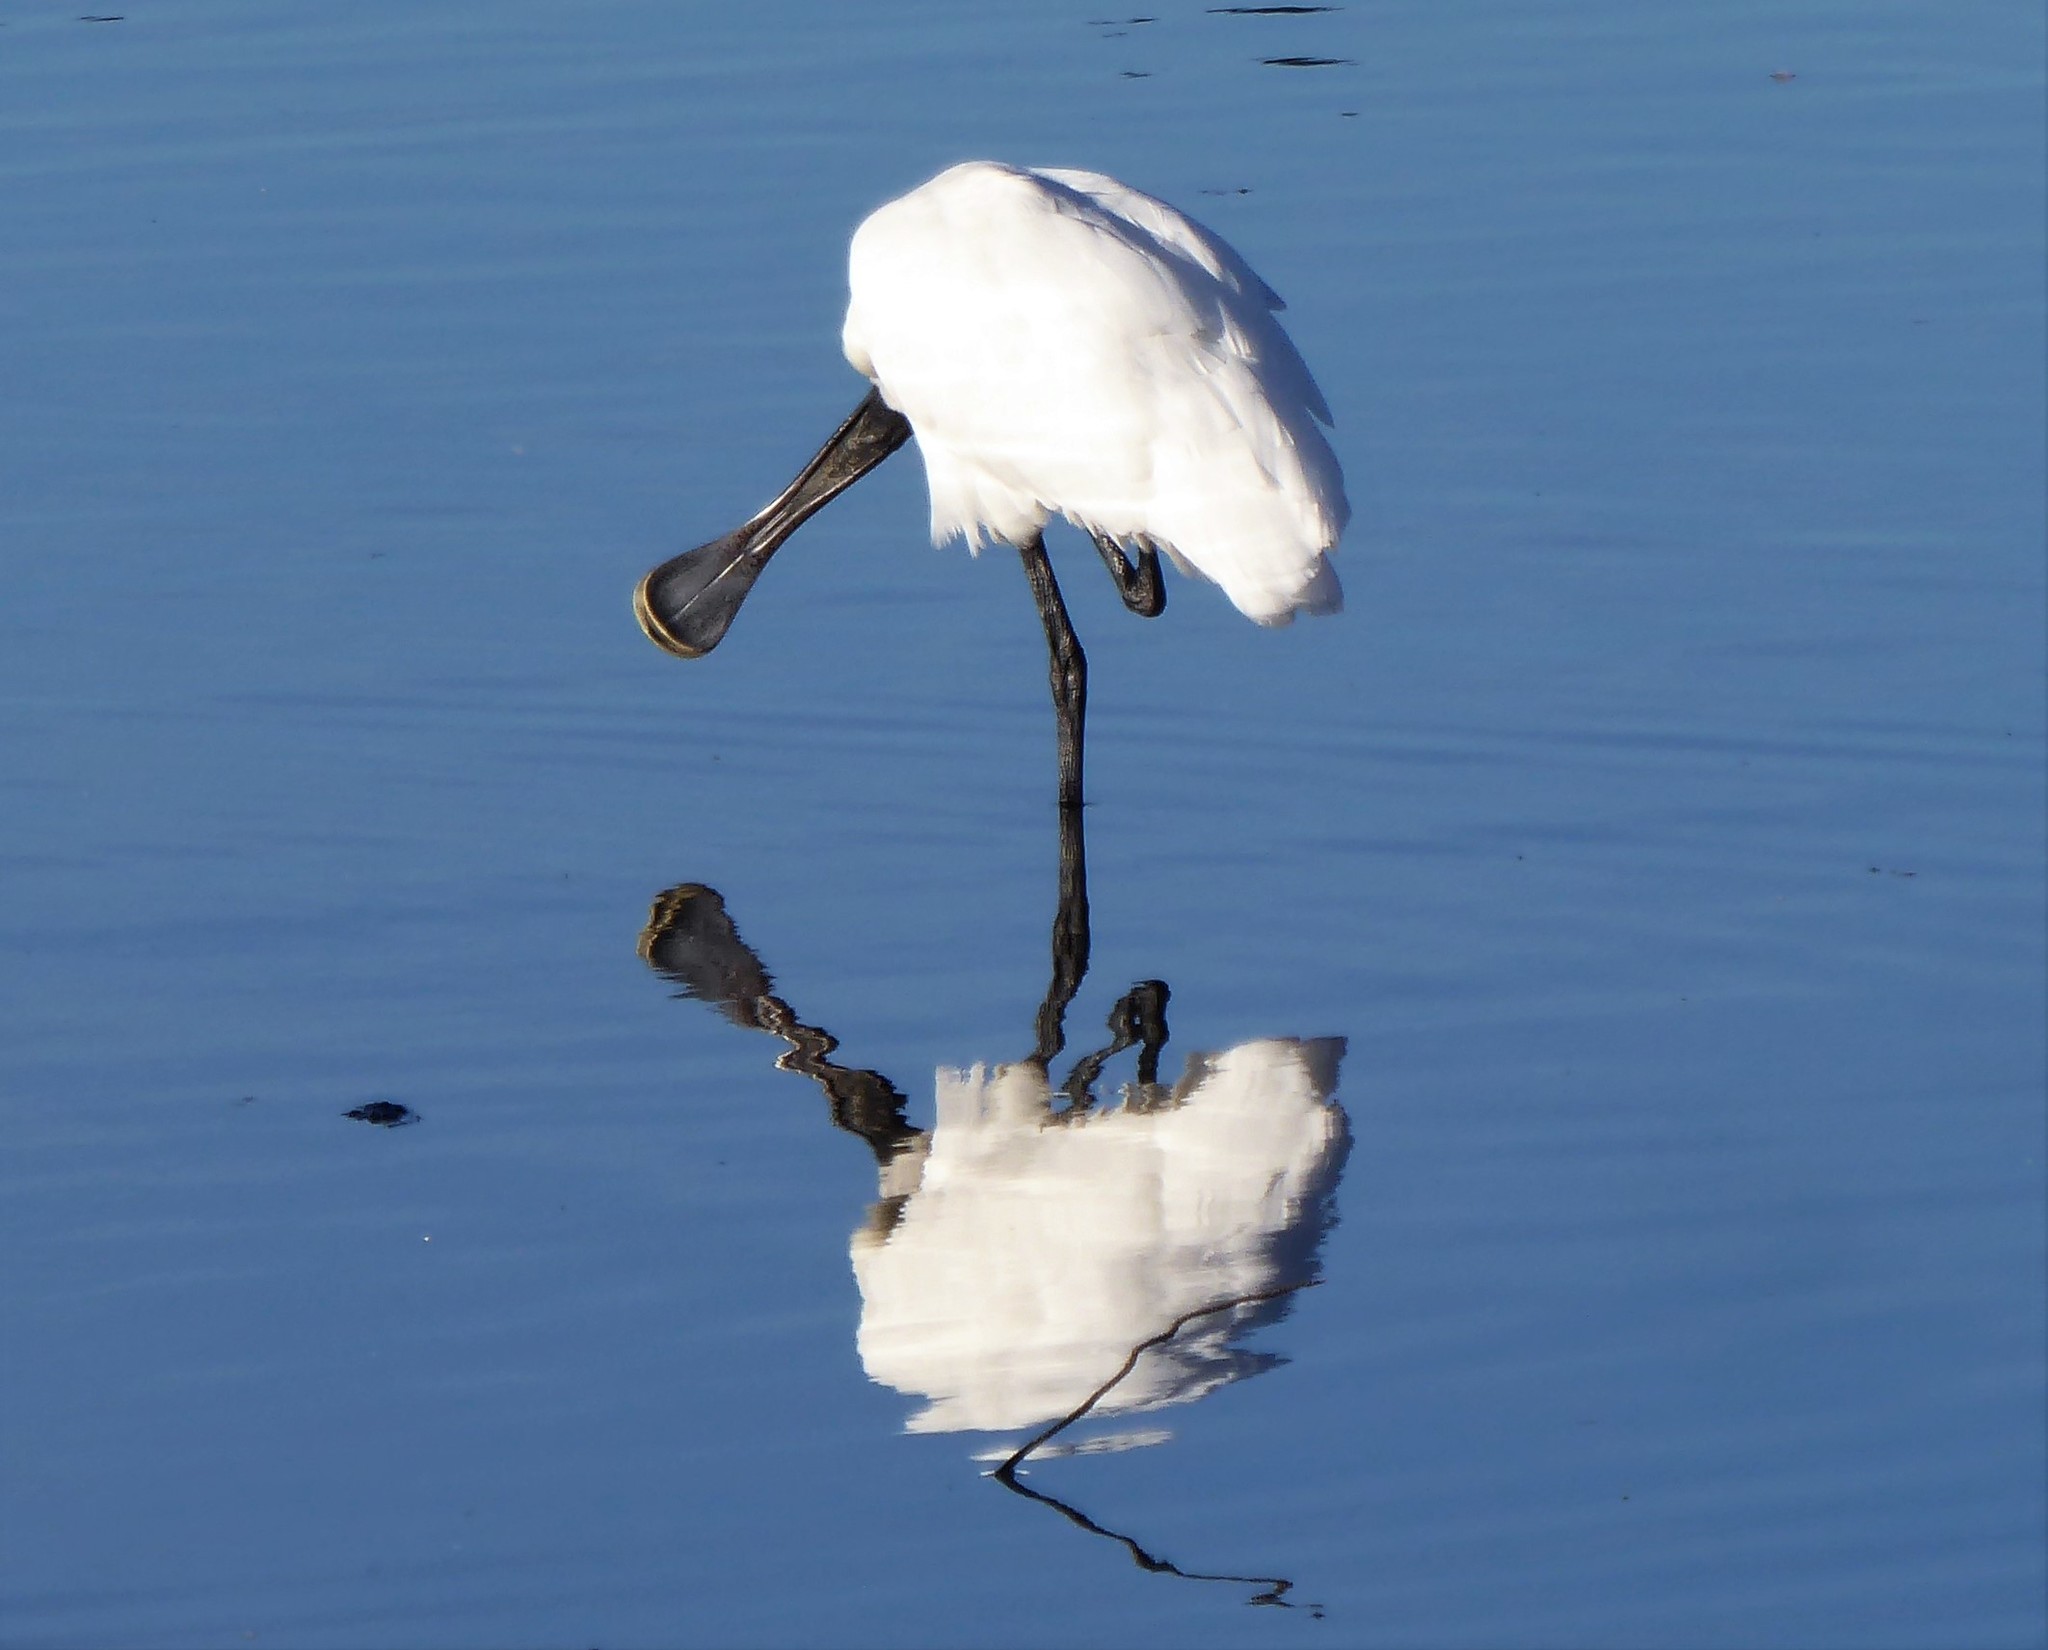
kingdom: Animalia
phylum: Chordata
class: Aves
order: Pelecaniformes
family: Threskiornithidae
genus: Platalea
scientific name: Platalea regia
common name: Royal spoonbill
